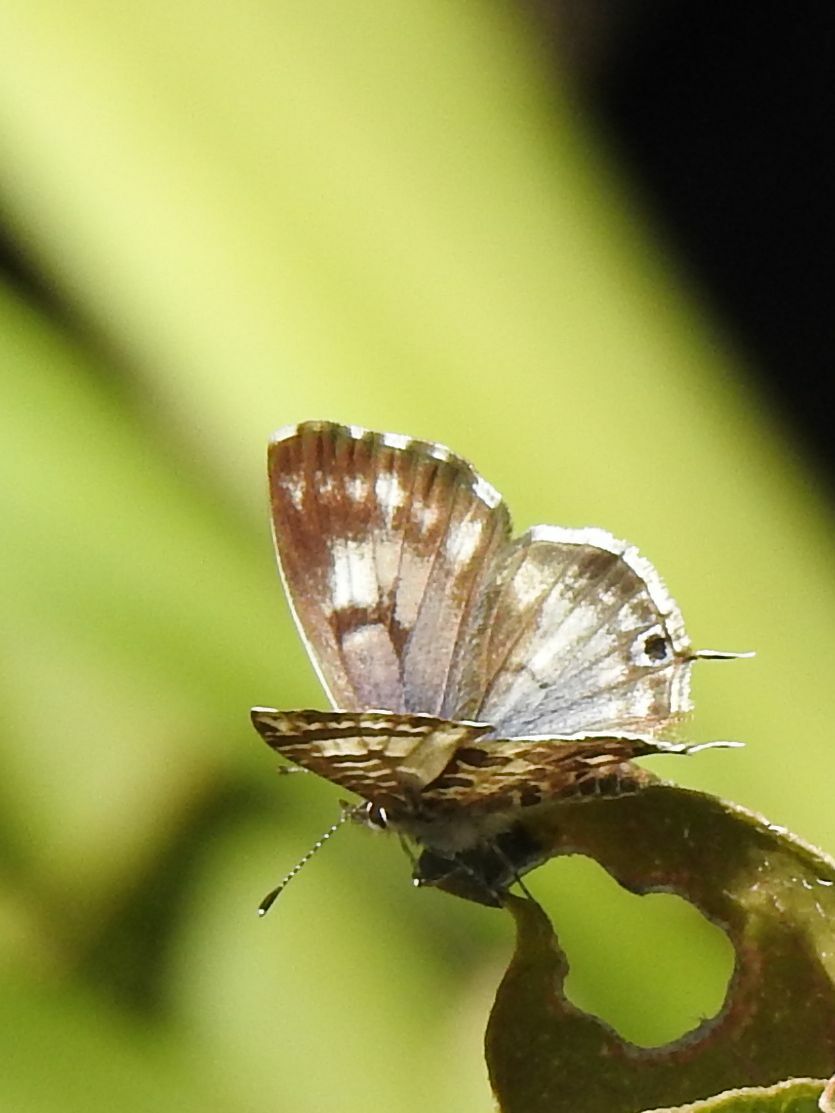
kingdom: Animalia
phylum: Arthropoda
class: Insecta
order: Lepidoptera
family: Lycaenidae
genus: Cacyreus
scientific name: Cacyreus lingeus
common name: Bush bronze
